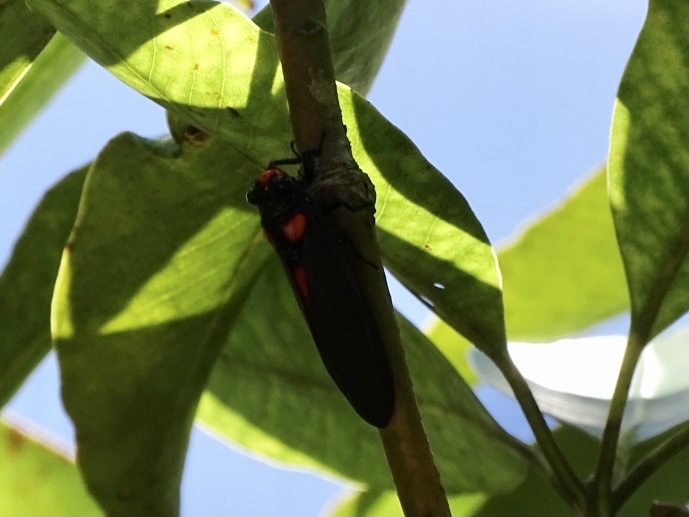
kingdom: Animalia
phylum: Arthropoda
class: Insecta
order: Hemiptera
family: Cicadidae
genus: Huechys
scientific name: Huechys sanguinea
